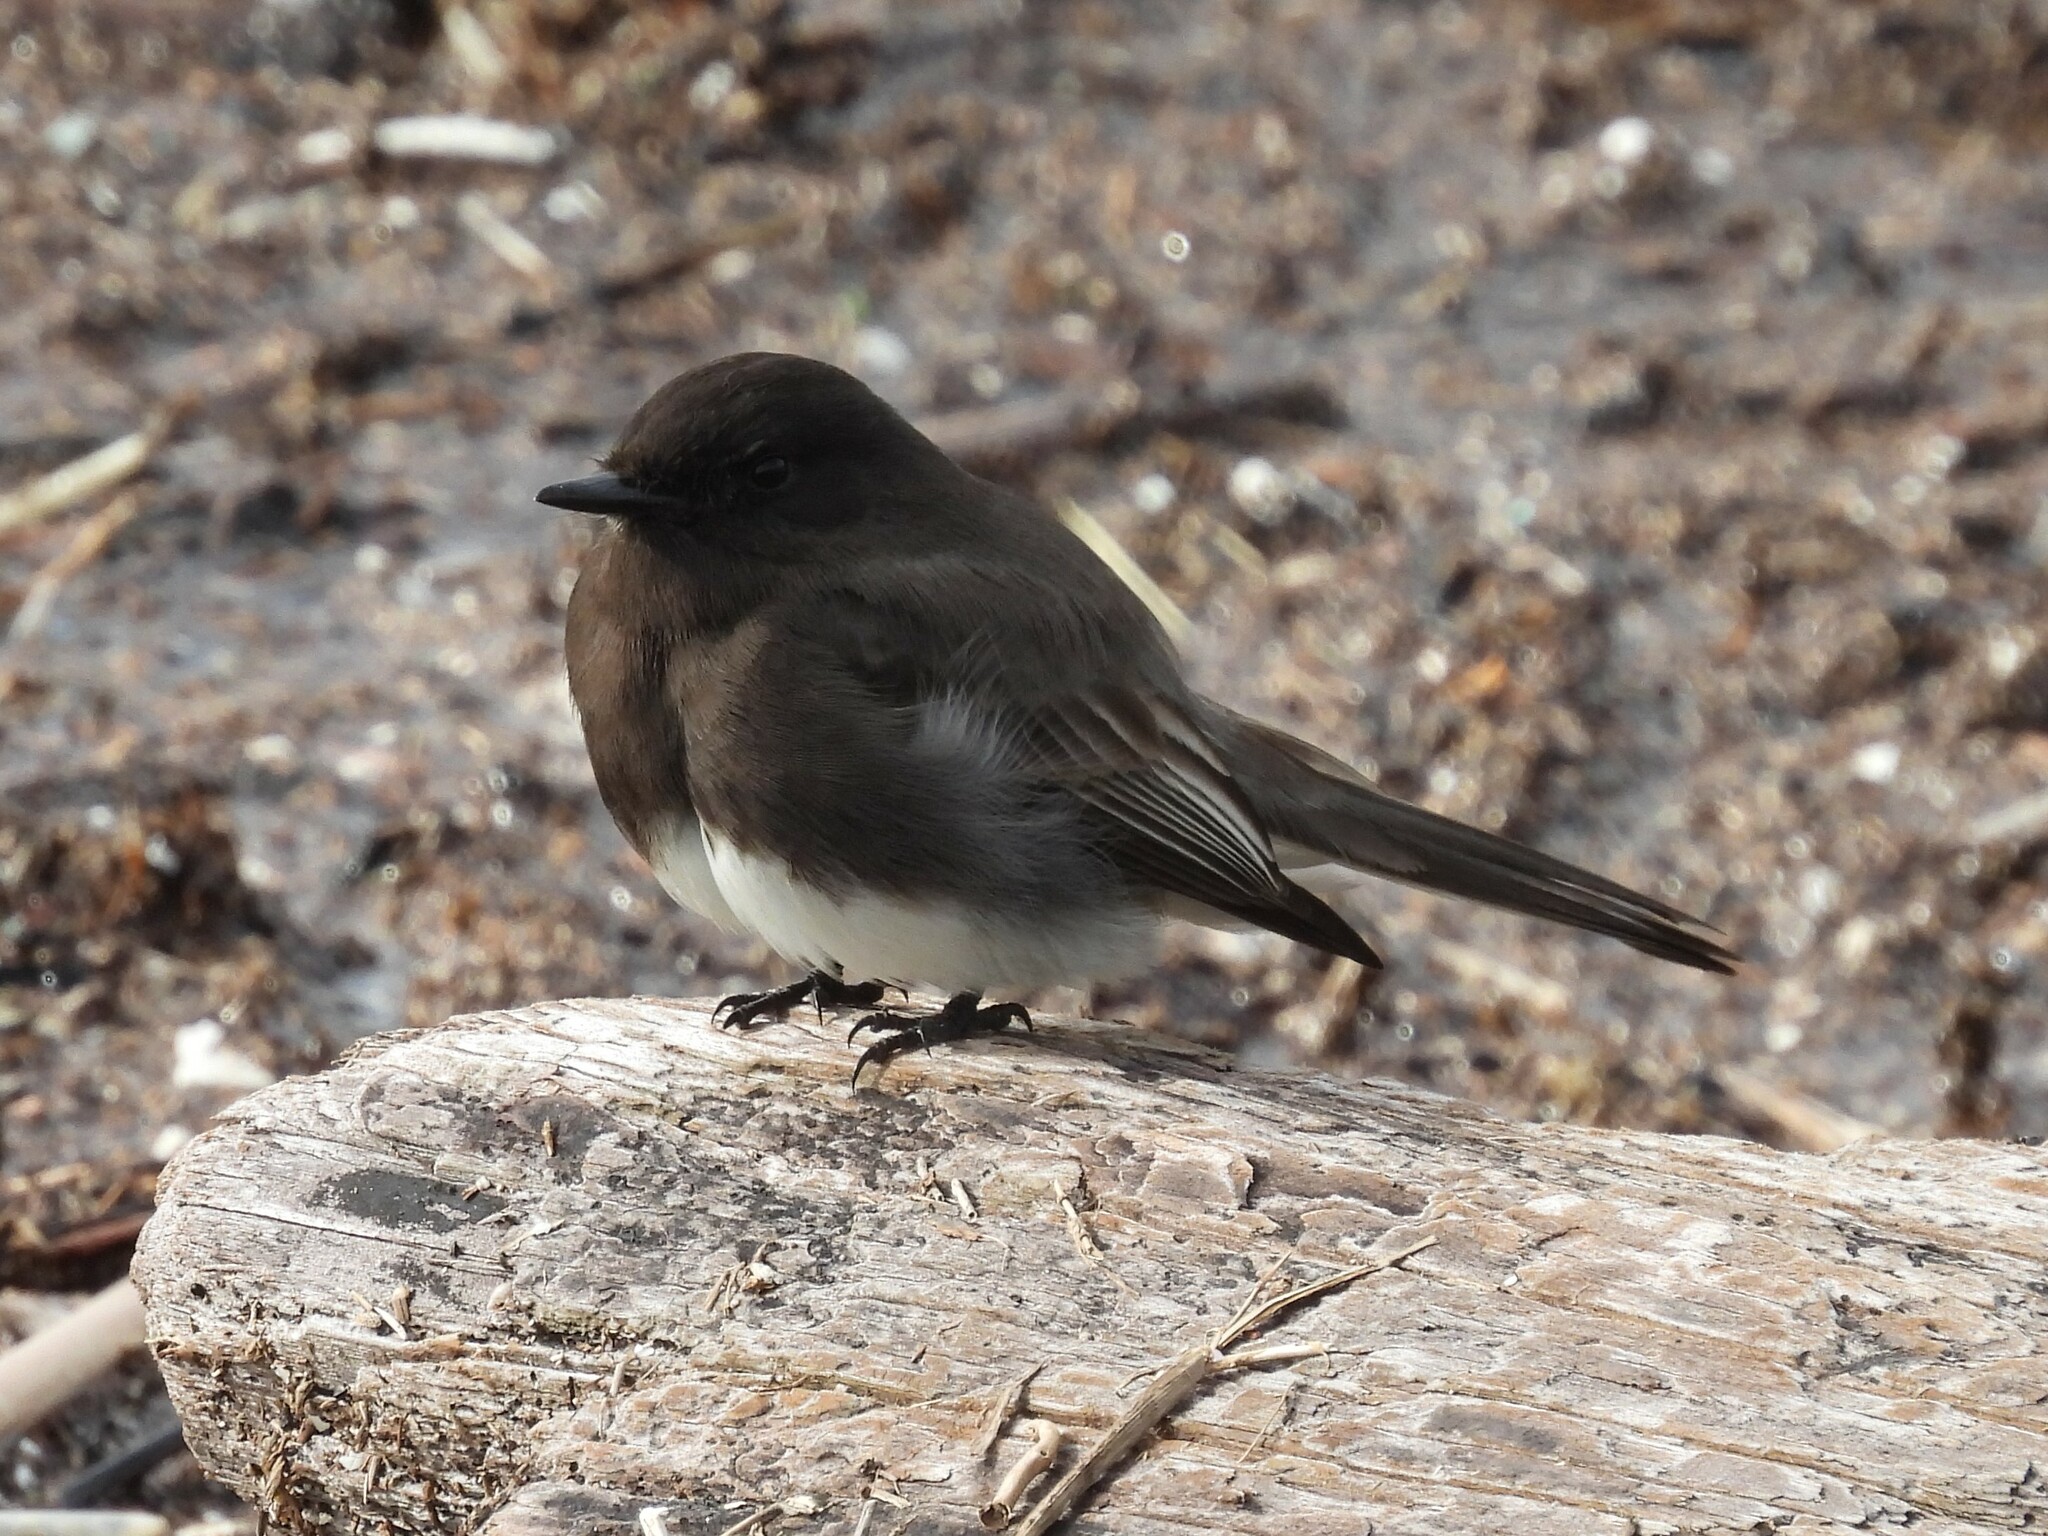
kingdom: Animalia
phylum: Chordata
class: Aves
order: Passeriformes
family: Tyrannidae
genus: Sayornis
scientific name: Sayornis nigricans
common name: Black phoebe
